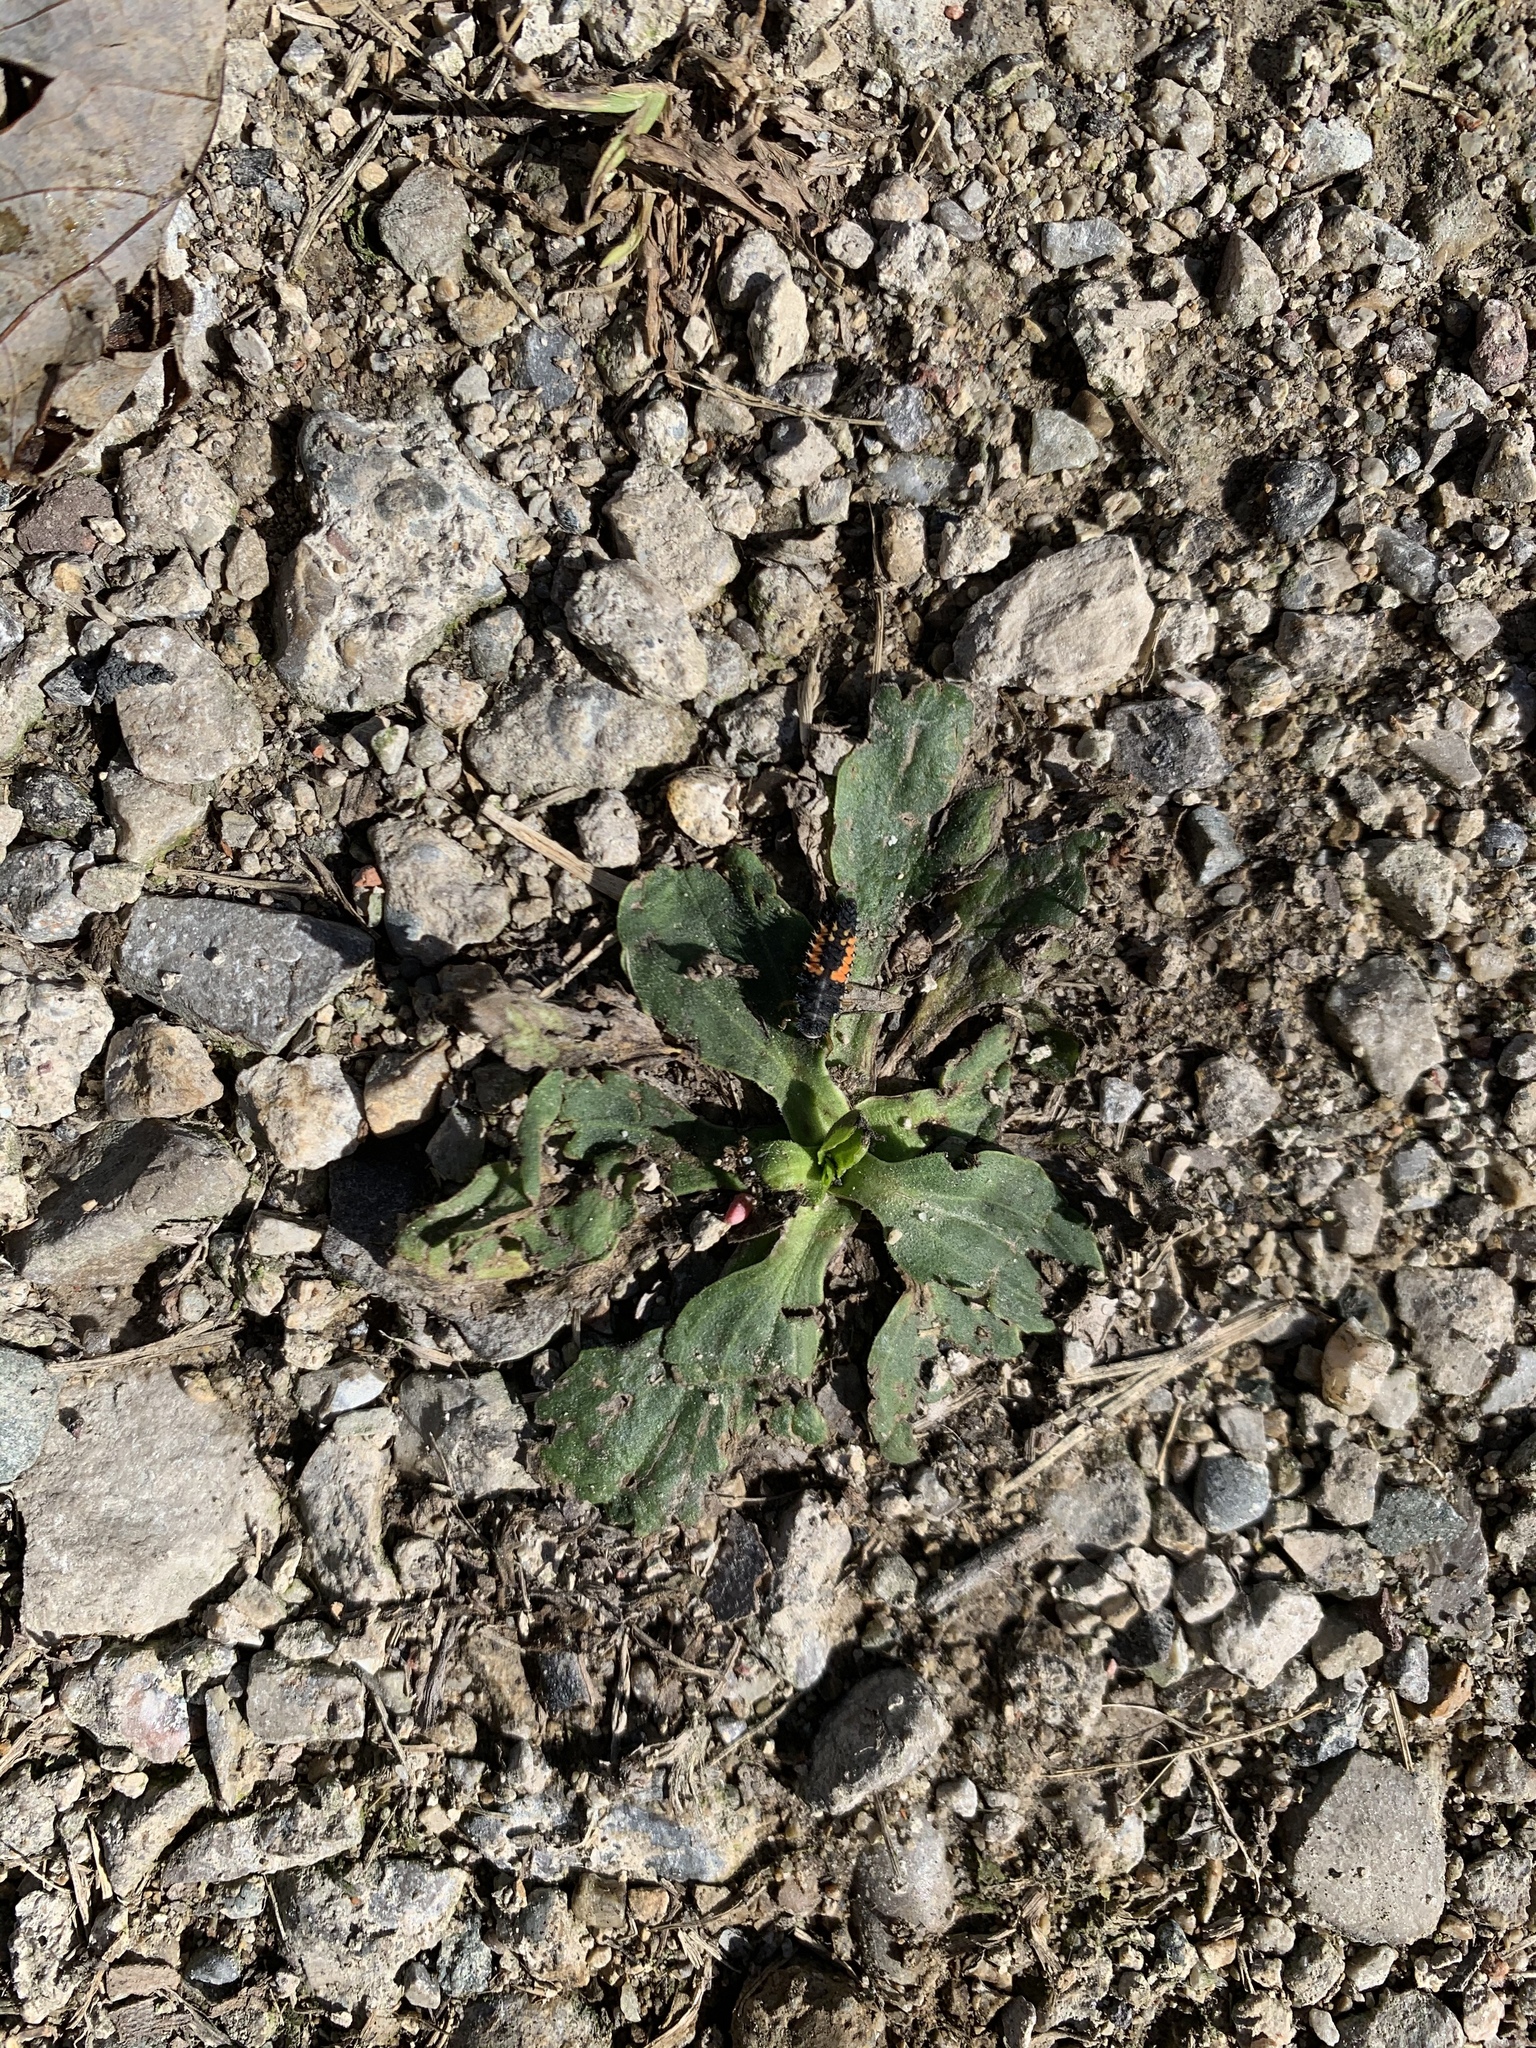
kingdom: Animalia
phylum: Arthropoda
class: Insecta
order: Coleoptera
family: Coccinellidae
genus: Harmonia
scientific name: Harmonia axyridis
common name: Harlequin ladybird
